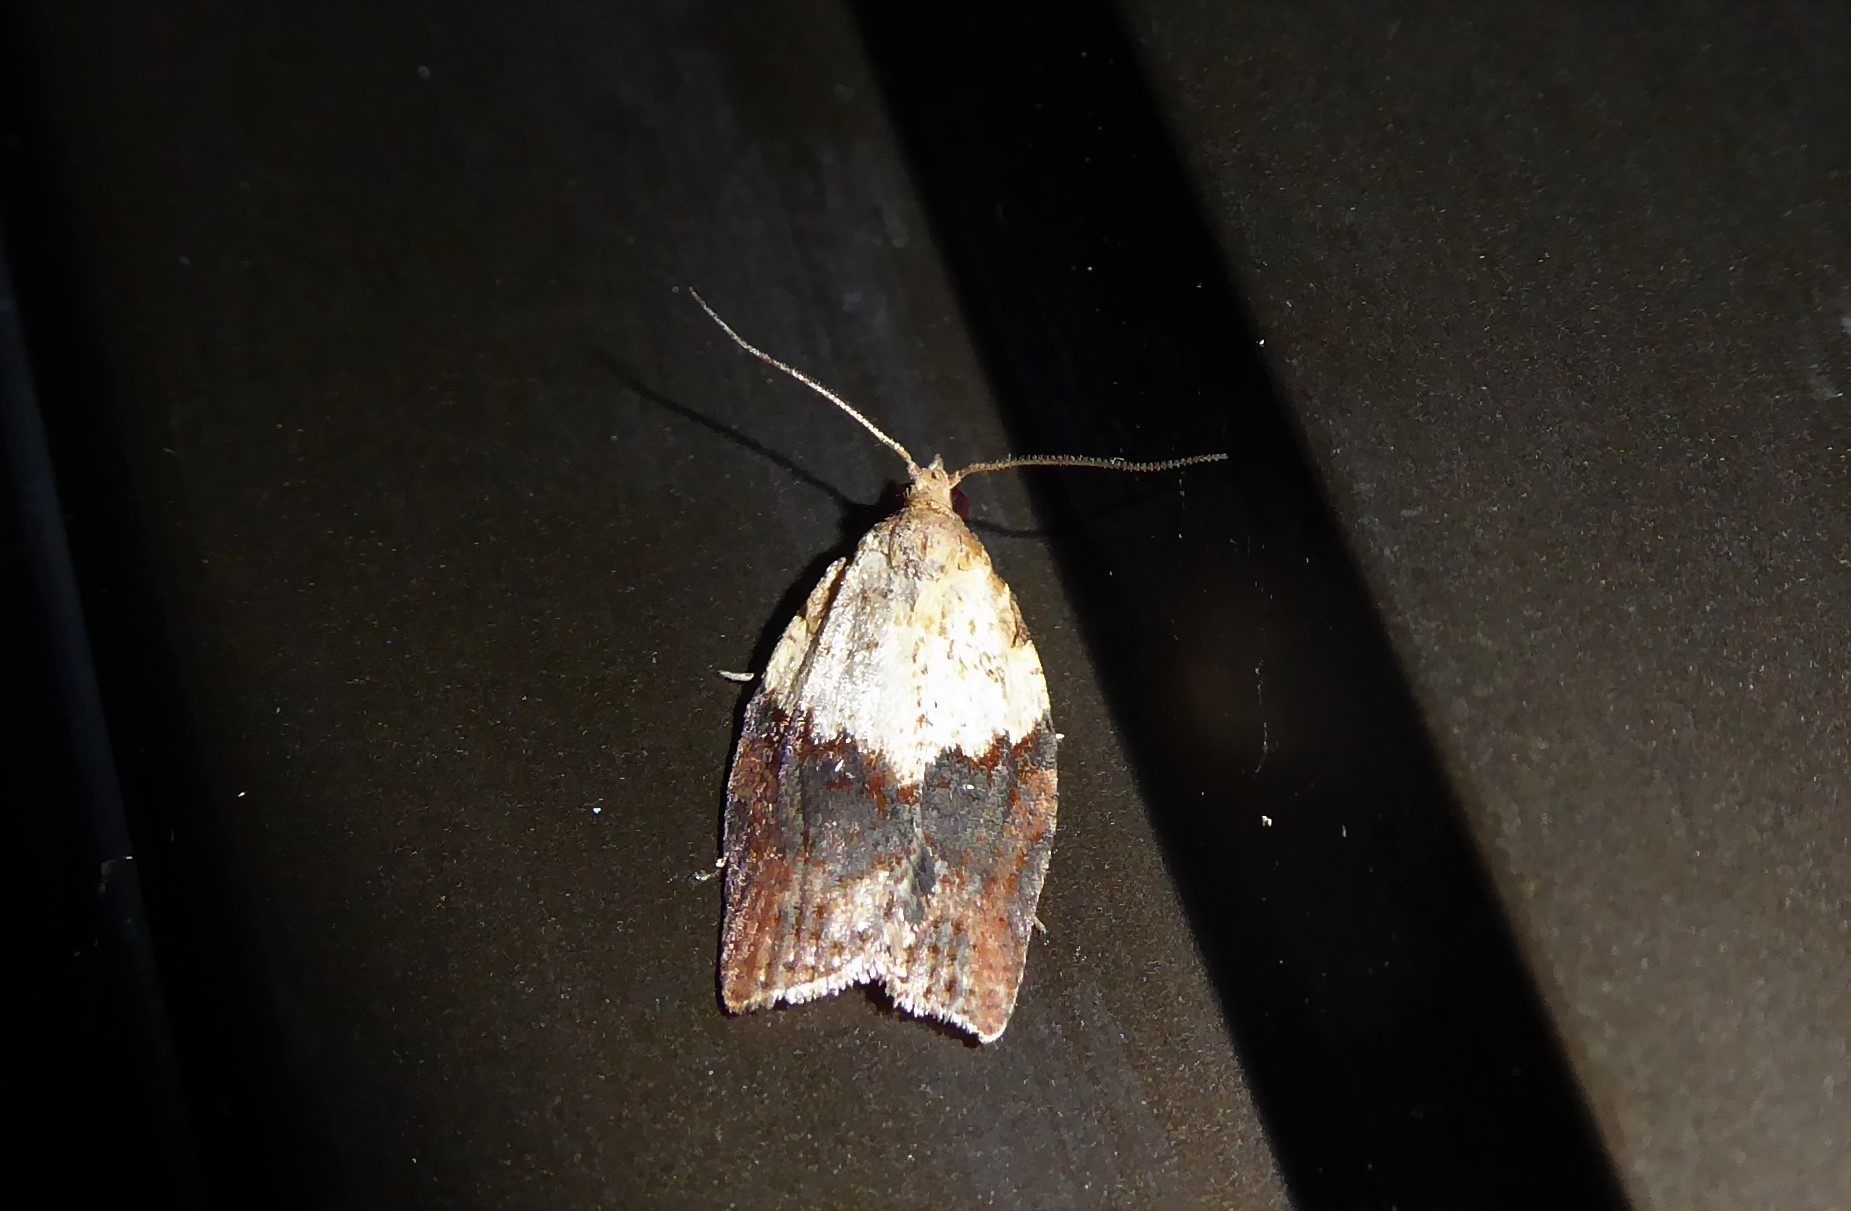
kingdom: Animalia
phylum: Arthropoda
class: Insecta
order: Lepidoptera
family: Tortricidae
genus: Epiphyas
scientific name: Epiphyas postvittana
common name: Light brown apple moth
